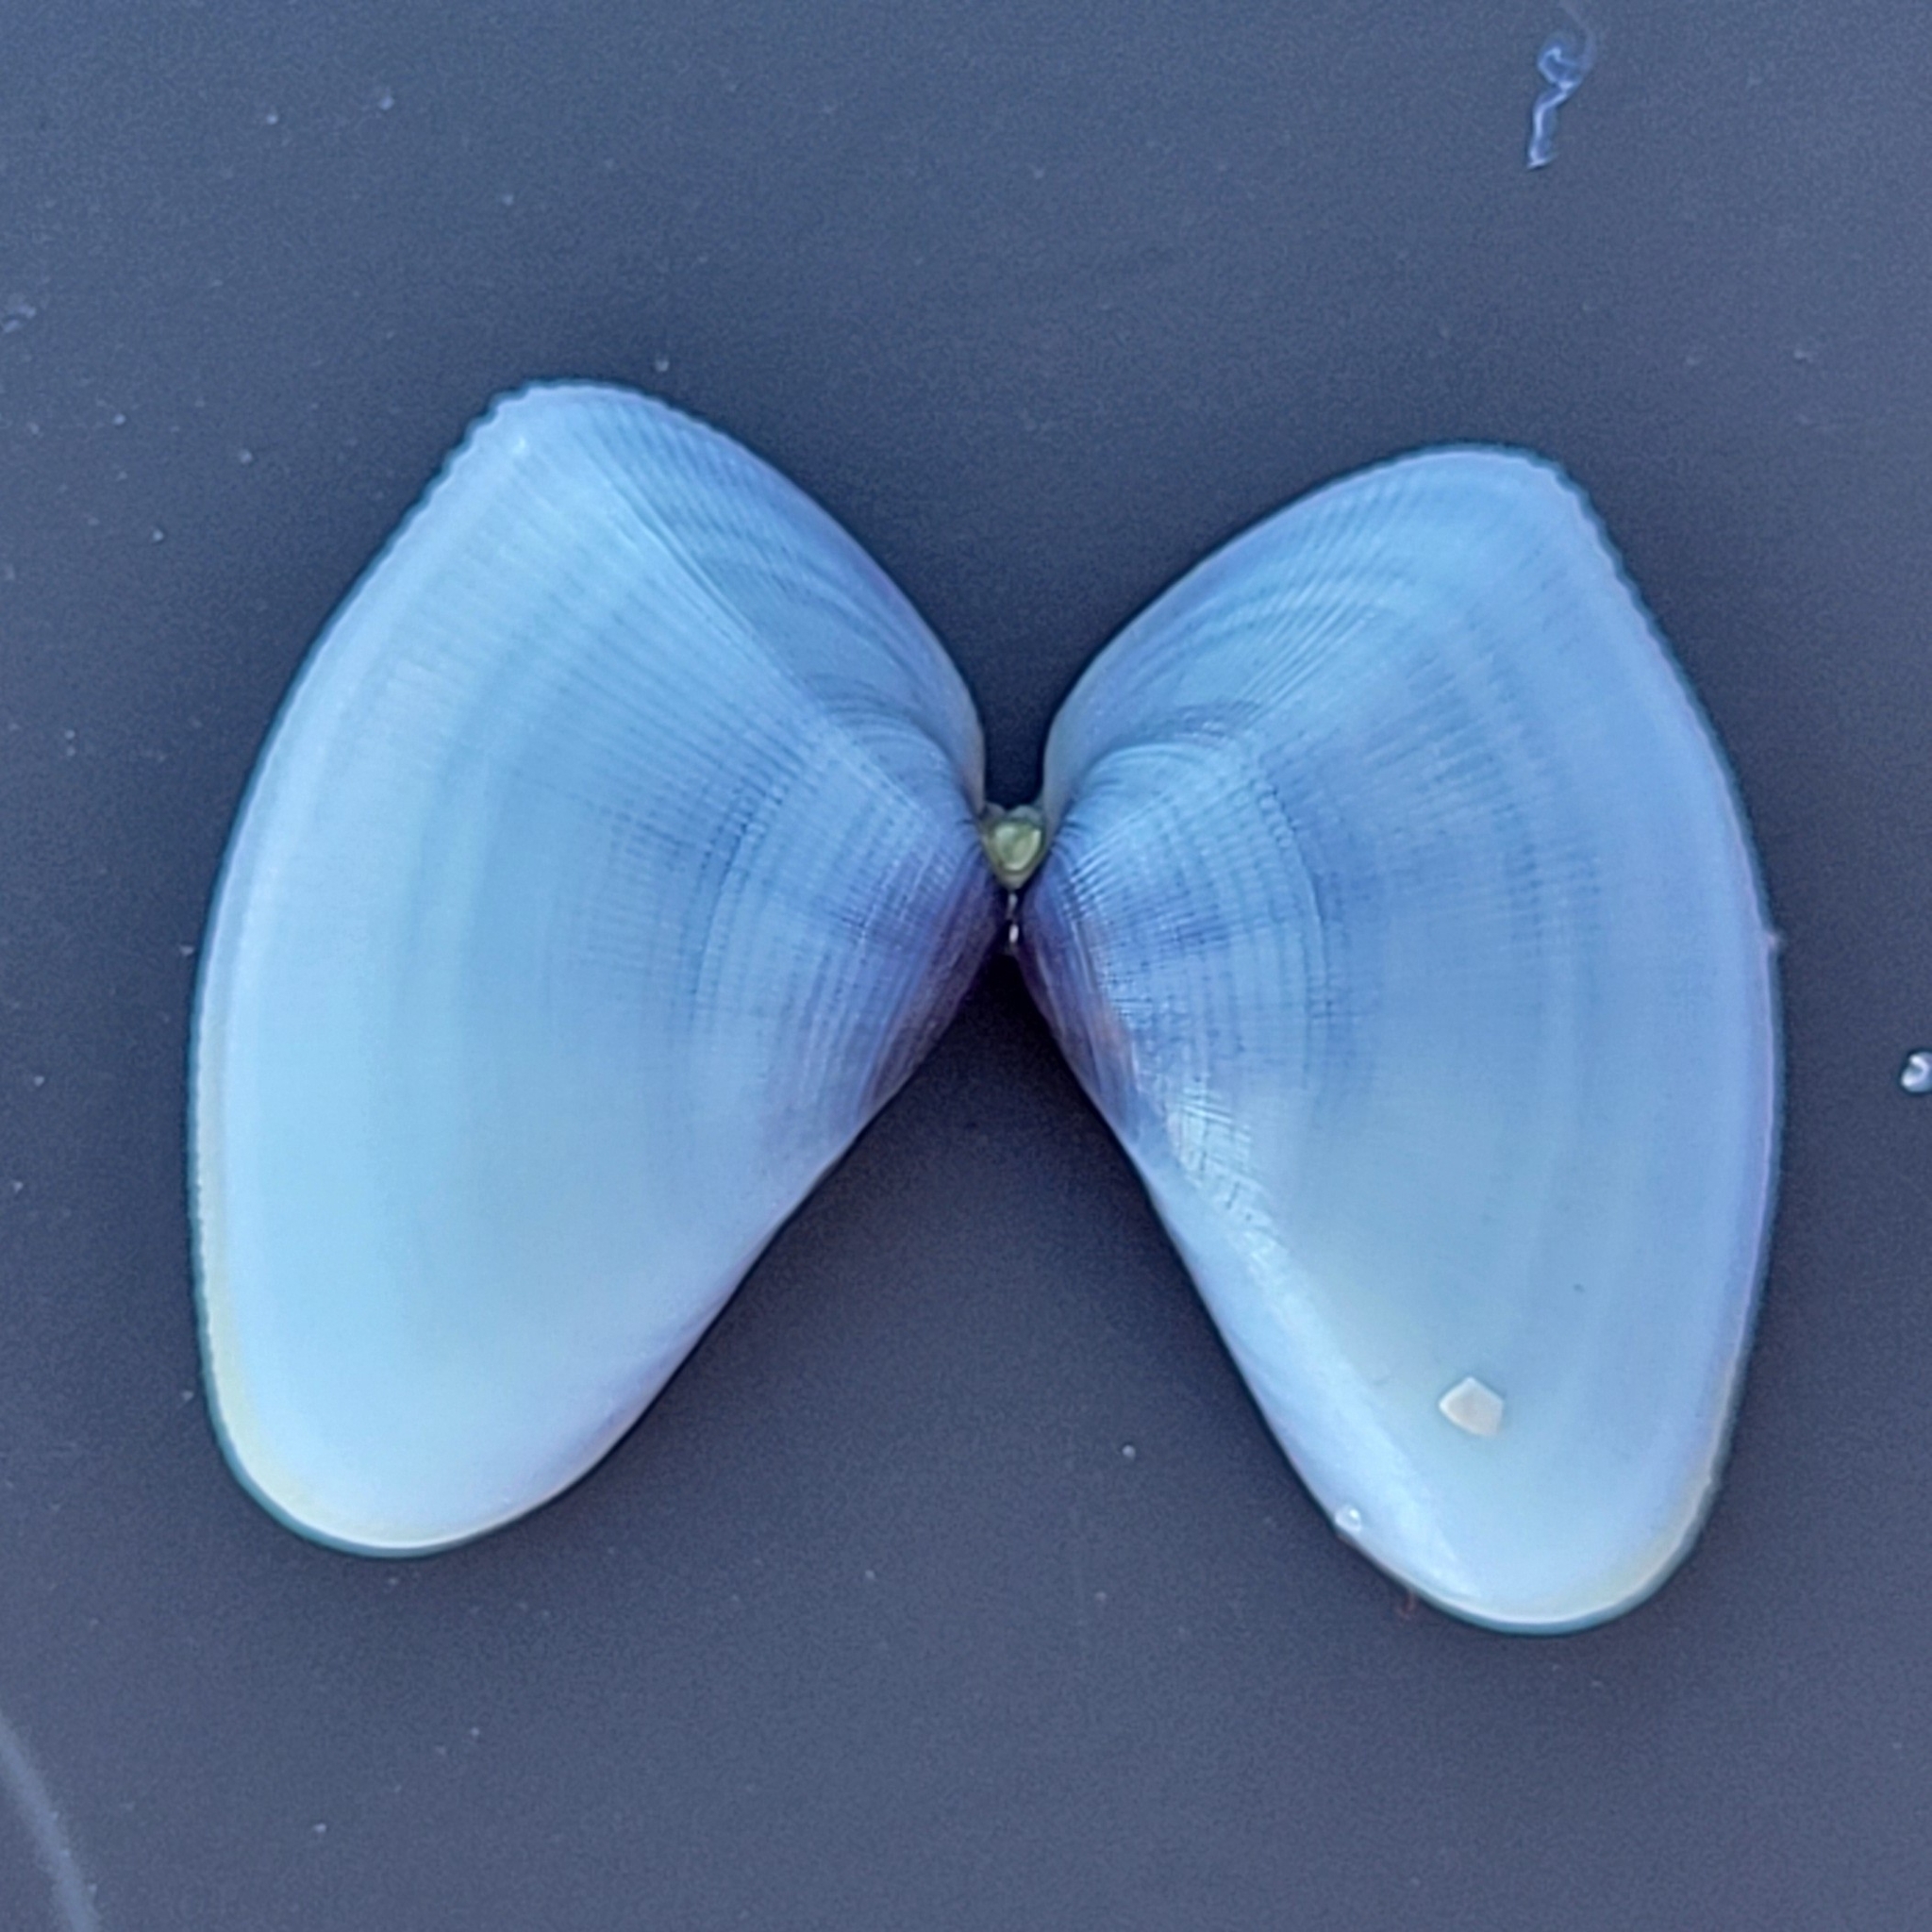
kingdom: Animalia
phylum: Mollusca
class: Bivalvia
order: Cardiida
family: Donacidae
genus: Donax
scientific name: Donax variabilis
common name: Butterfly shell
